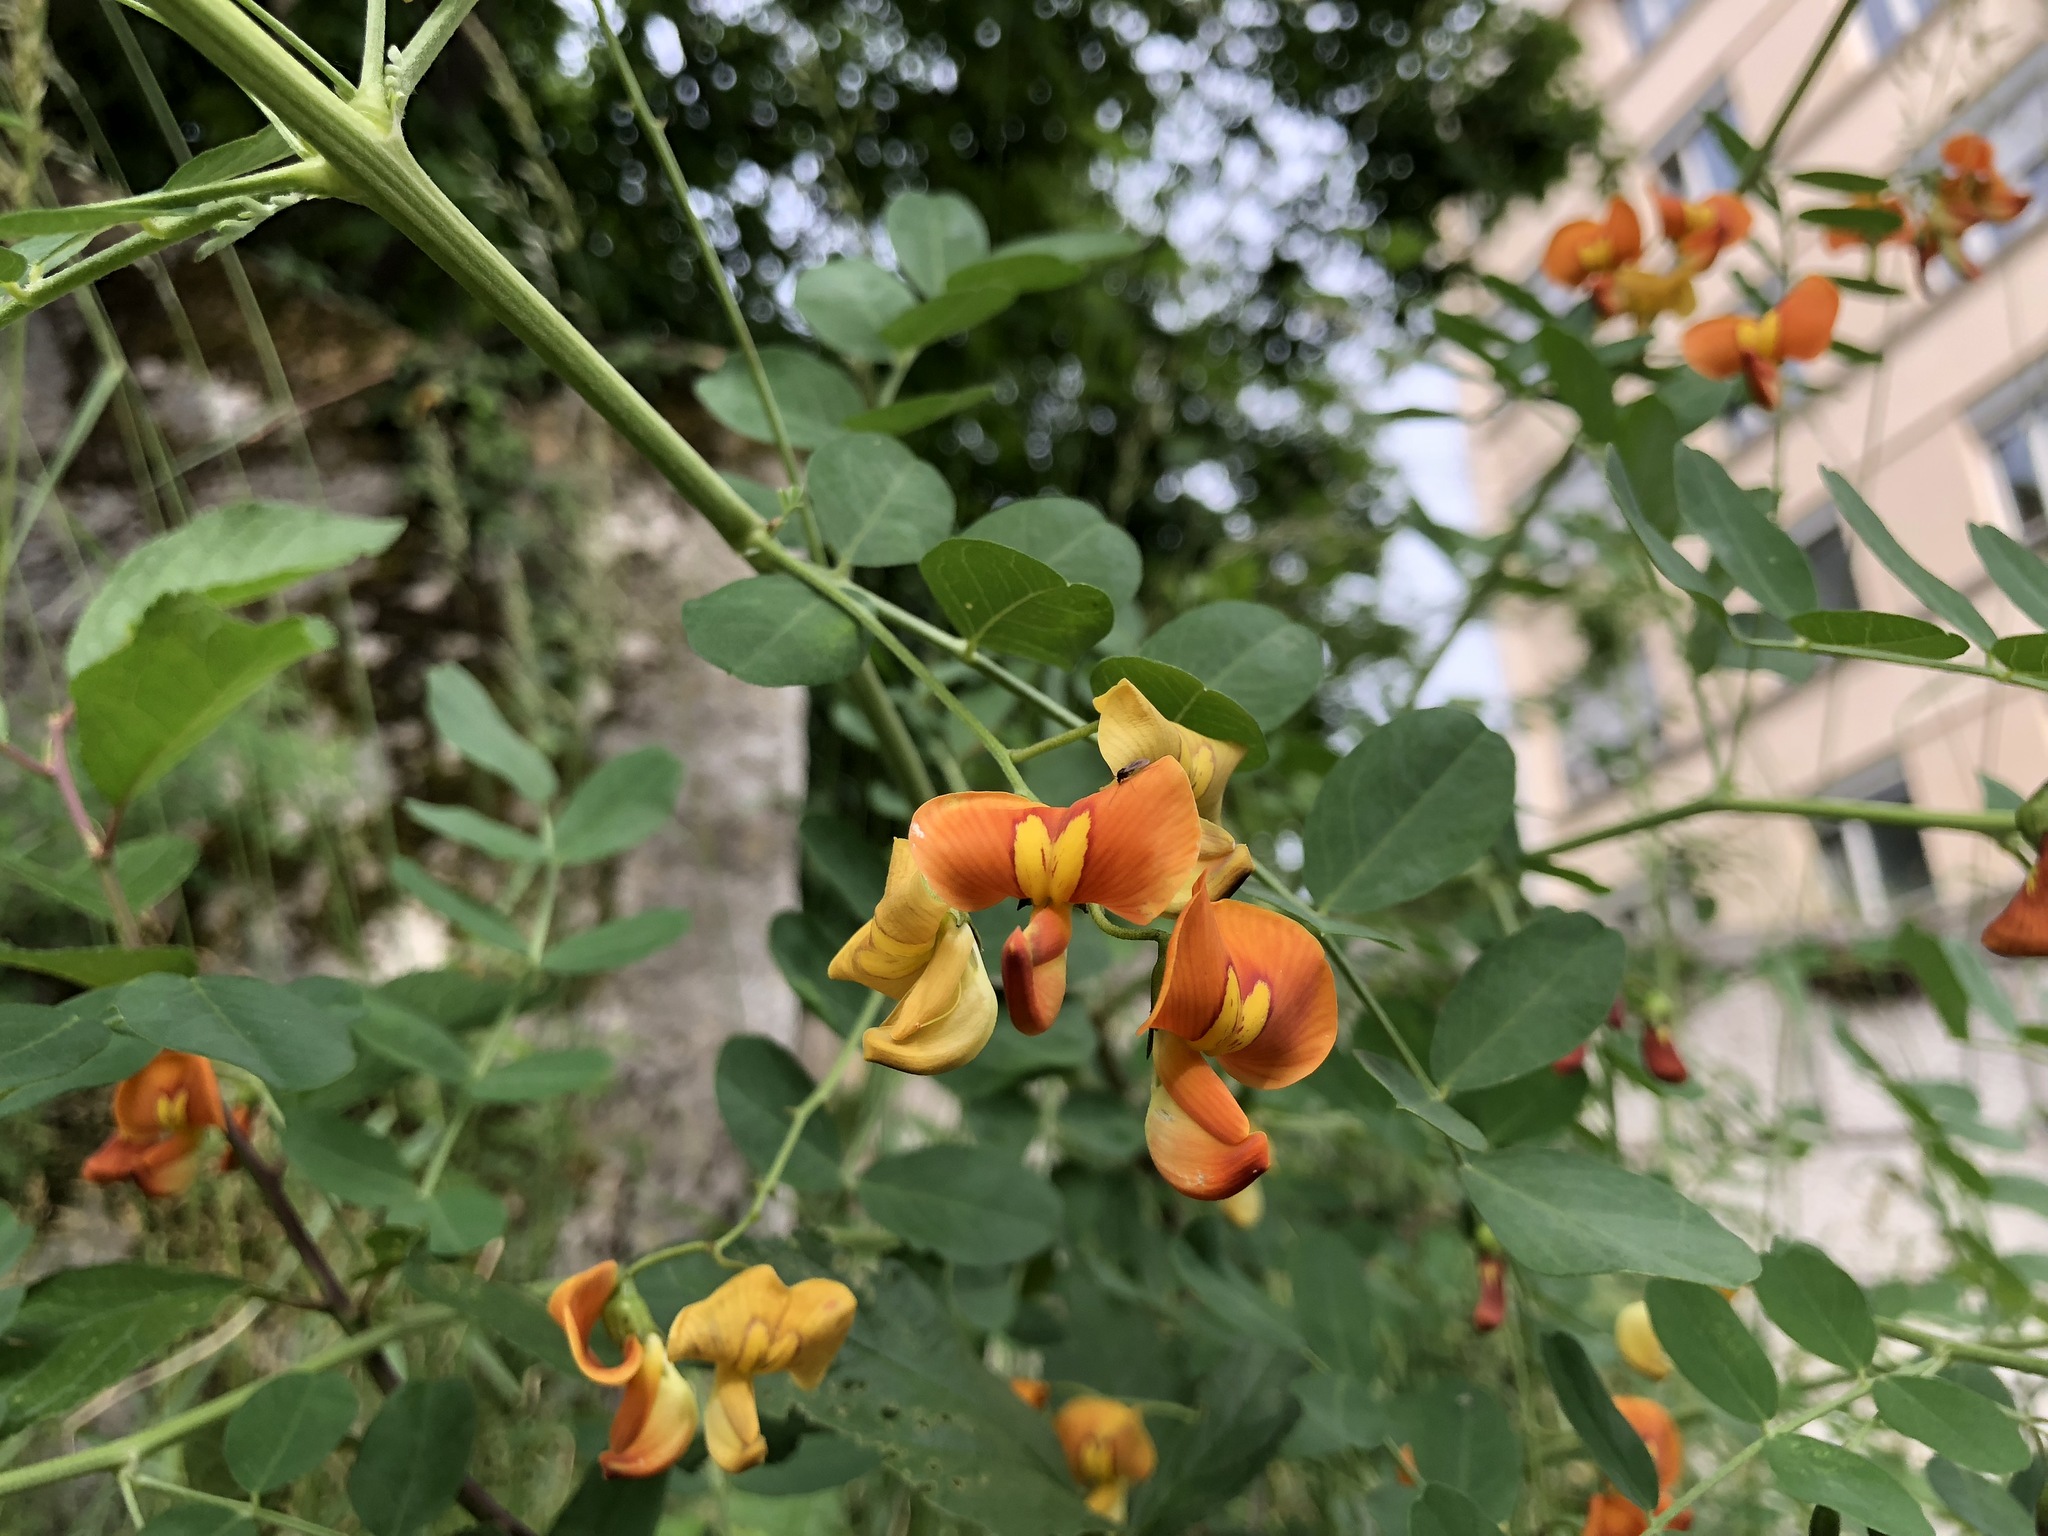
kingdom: Plantae
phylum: Tracheophyta
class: Magnoliopsida
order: Fabales
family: Fabaceae
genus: Colutea
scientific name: Colutea arborescens
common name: Bladder-senna
